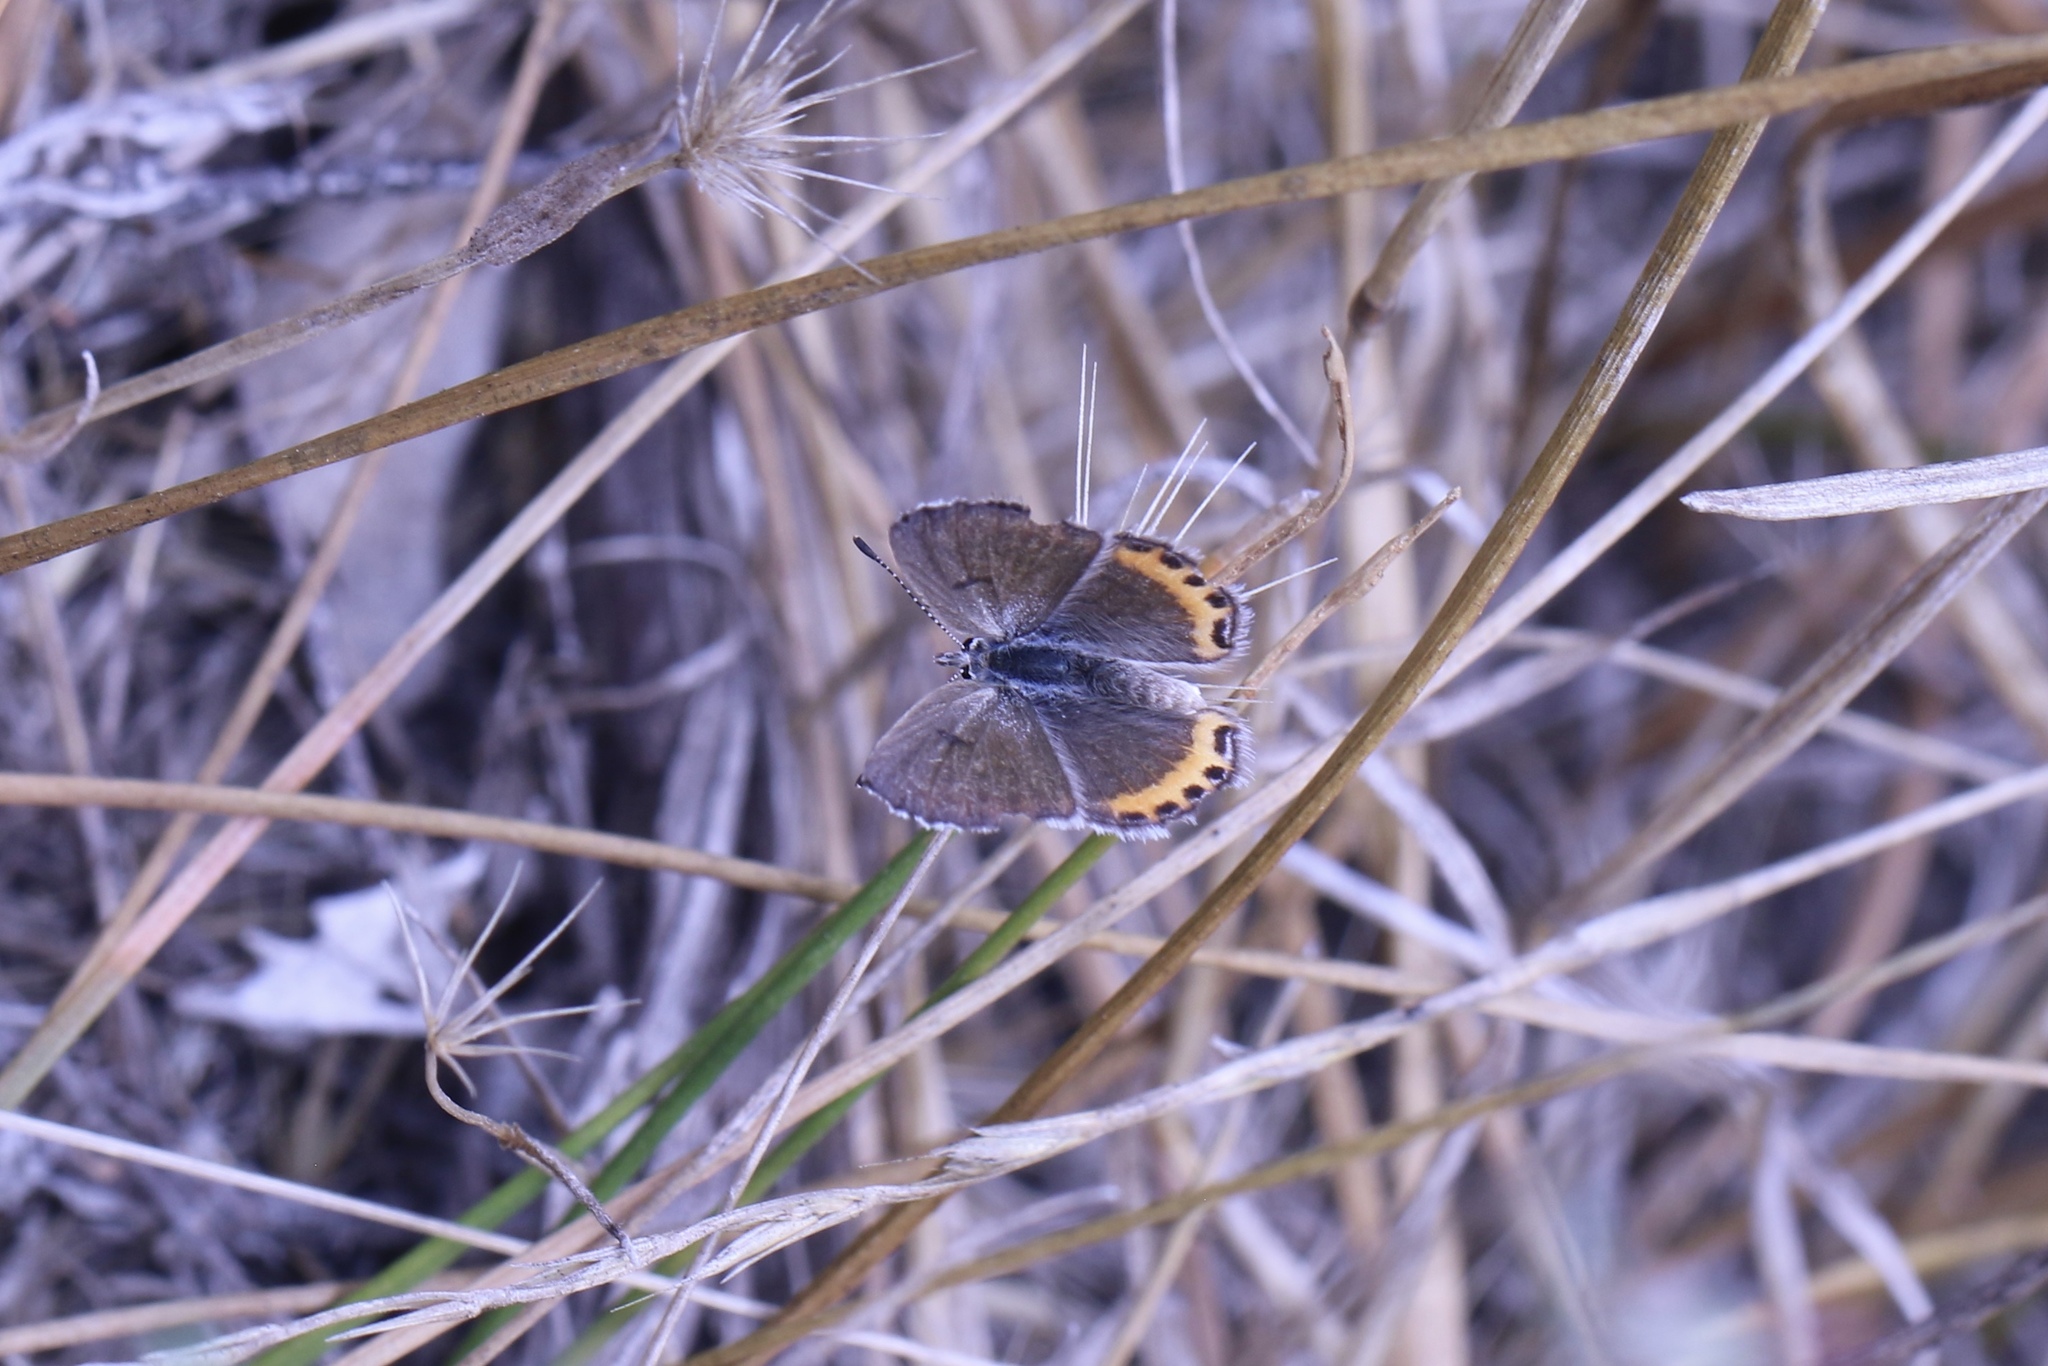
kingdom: Animalia
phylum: Arthropoda
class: Insecta
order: Lepidoptera
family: Lycaenidae
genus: Icaricia
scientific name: Icaricia acmon
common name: Acmon blue
